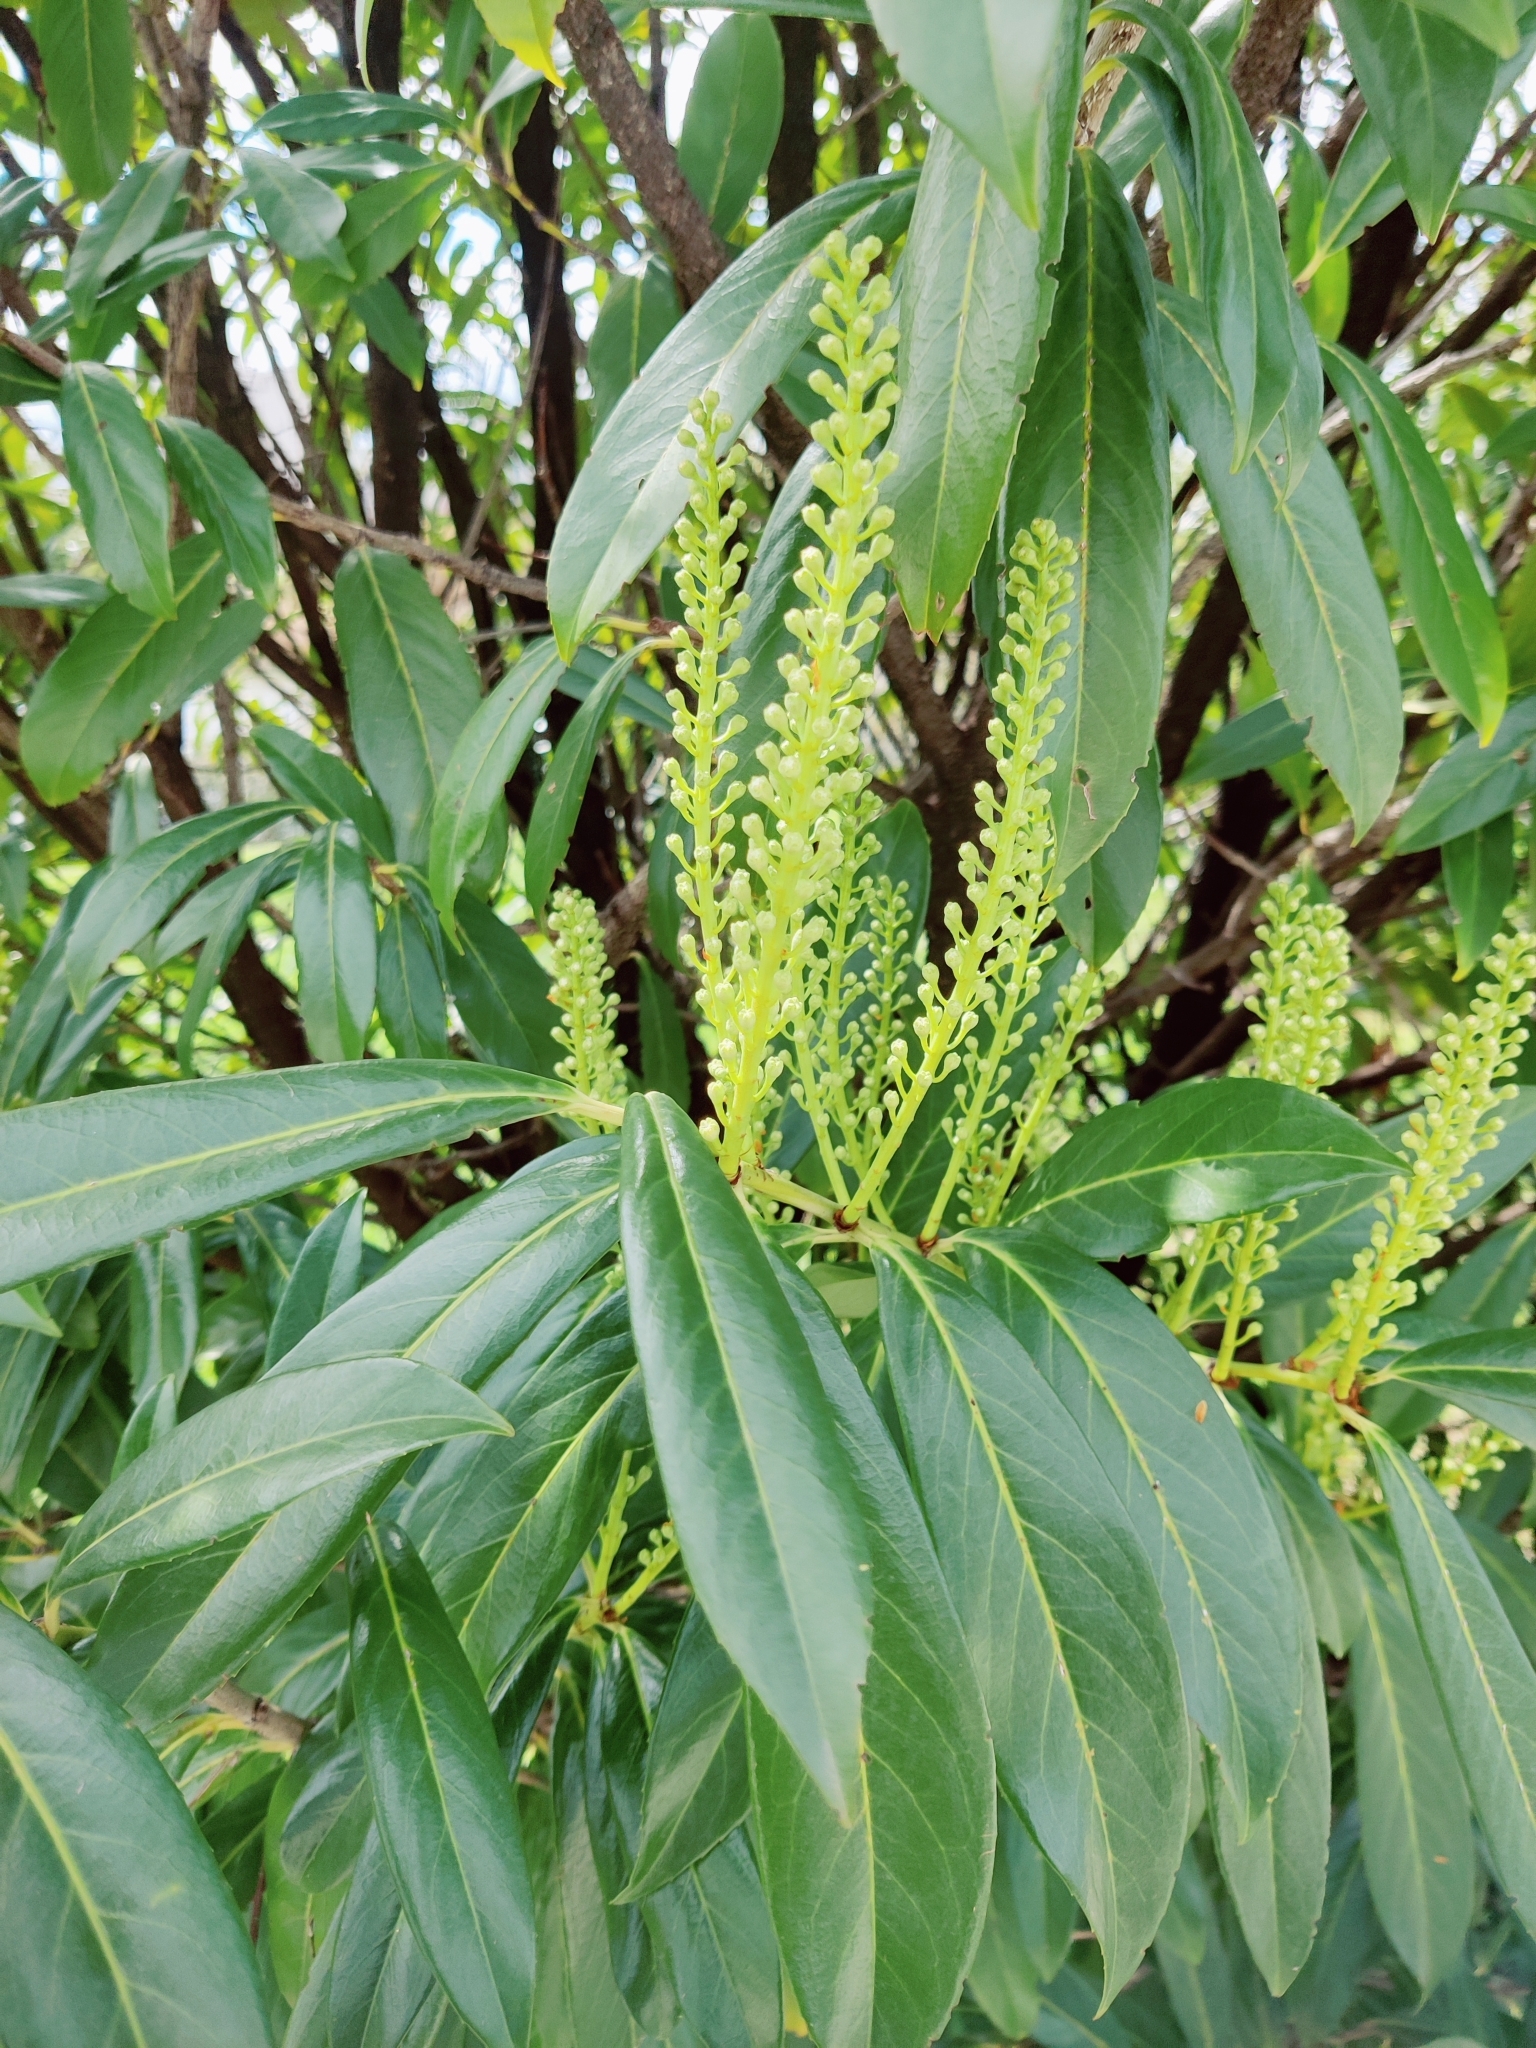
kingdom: Plantae
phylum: Tracheophyta
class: Magnoliopsida
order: Rosales
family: Rosaceae
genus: Prunus
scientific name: Prunus laurocerasus
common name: Cherry laurel
